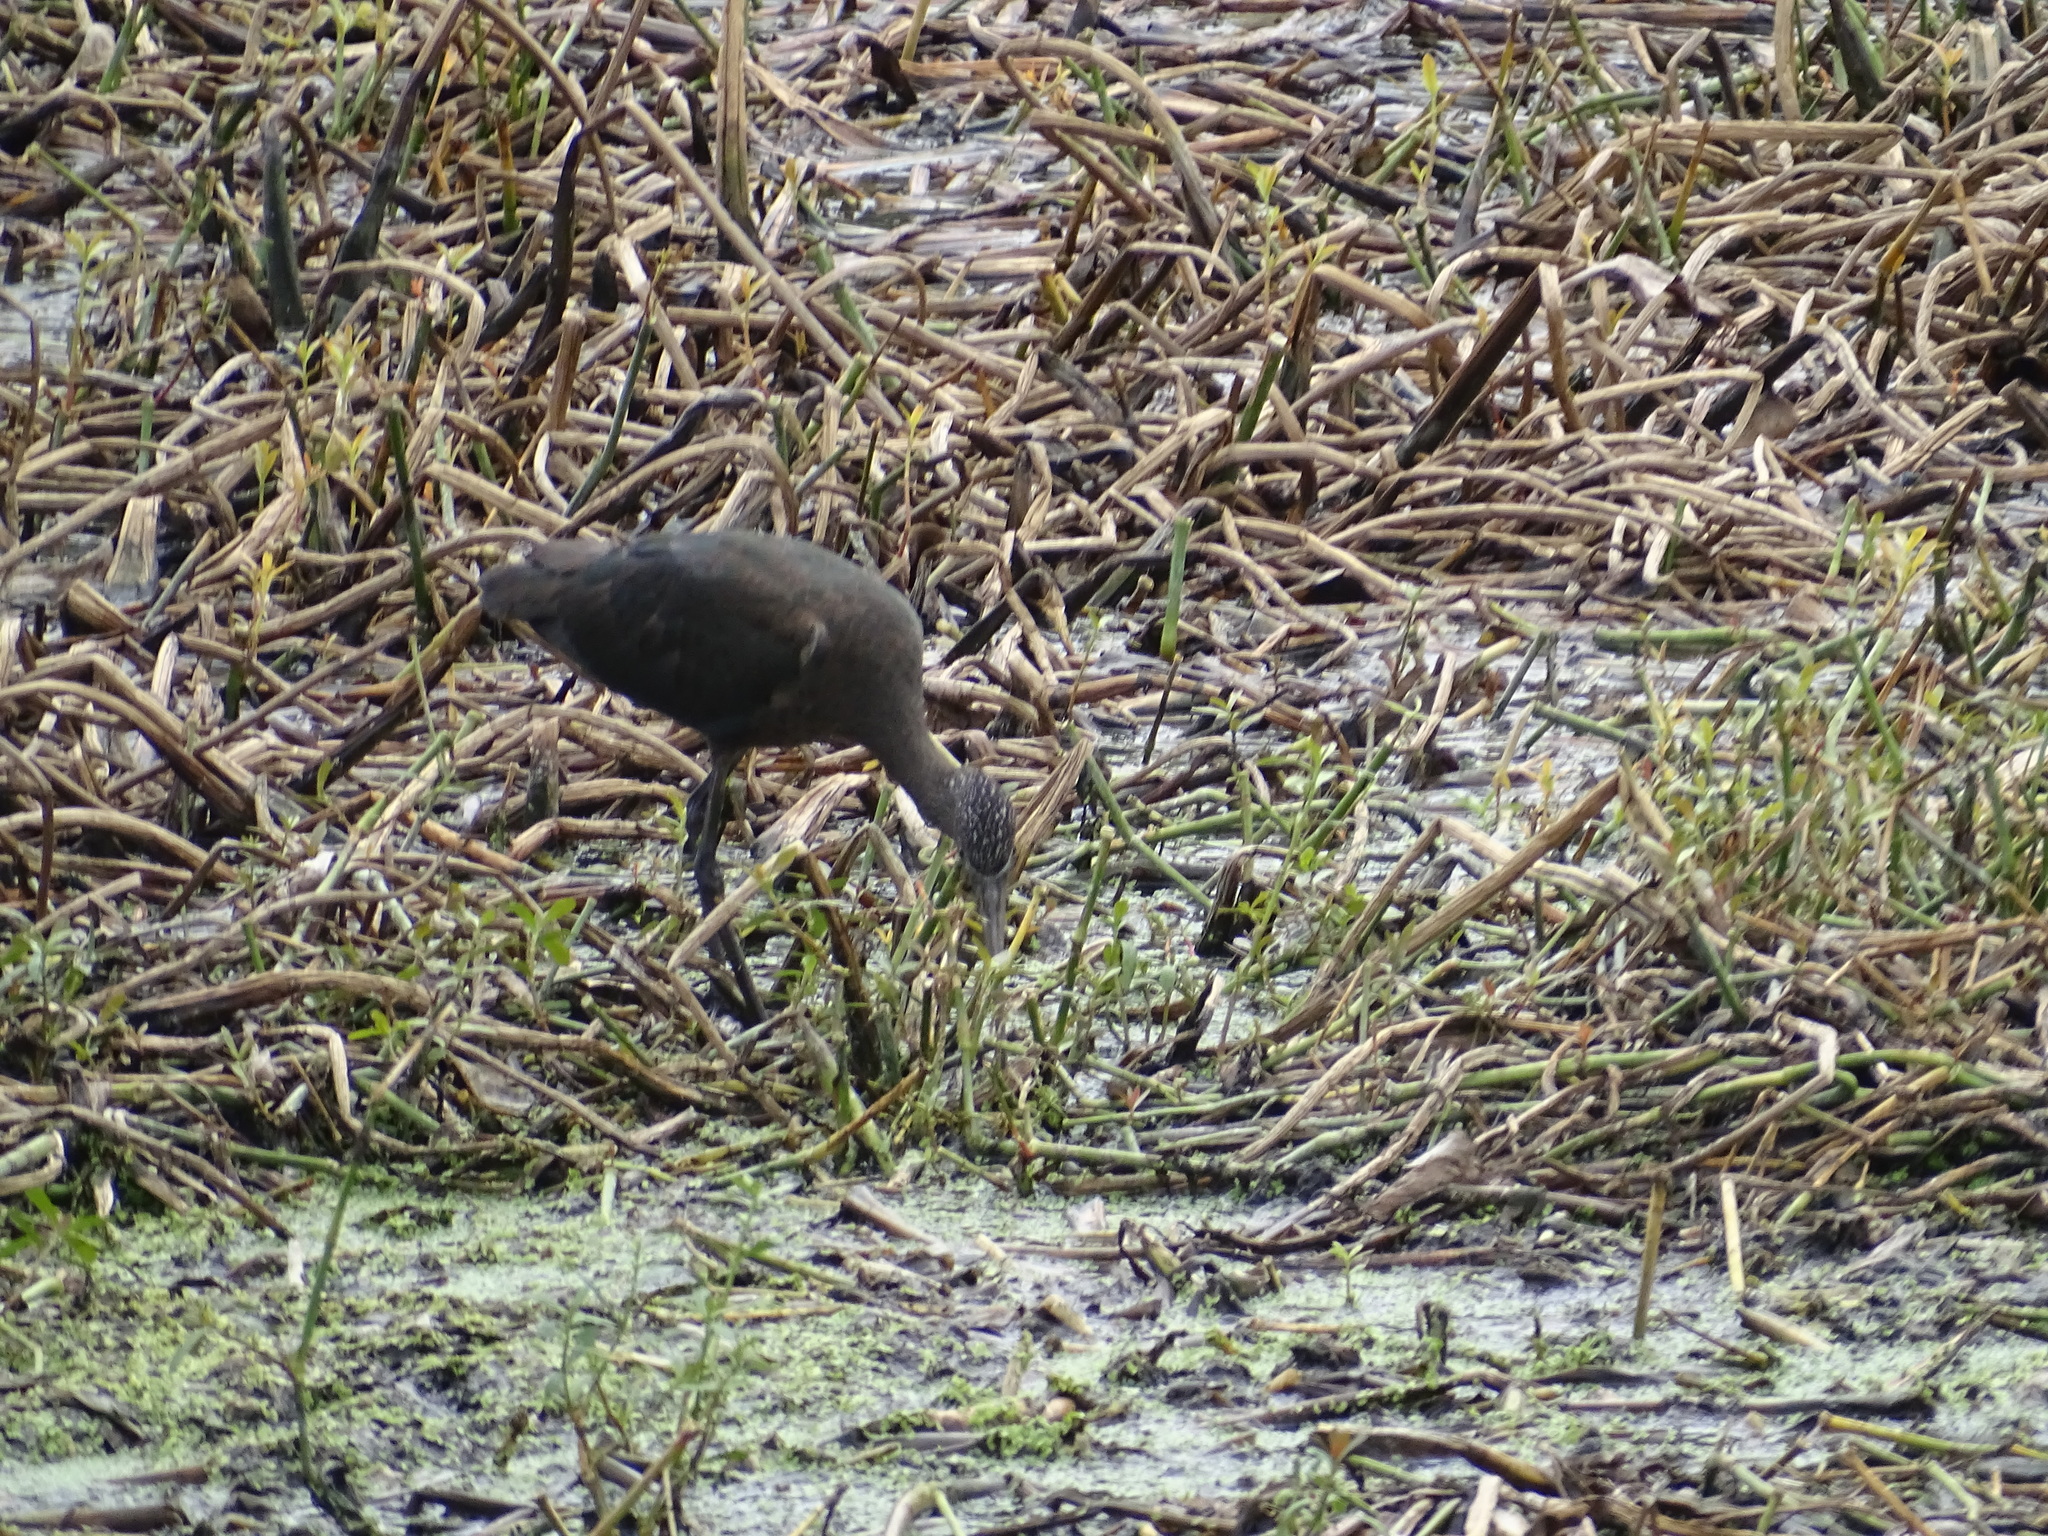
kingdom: Animalia
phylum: Chordata
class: Aves
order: Pelecaniformes
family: Threskiornithidae
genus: Plegadis
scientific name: Plegadis falcinellus
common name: Glossy ibis
